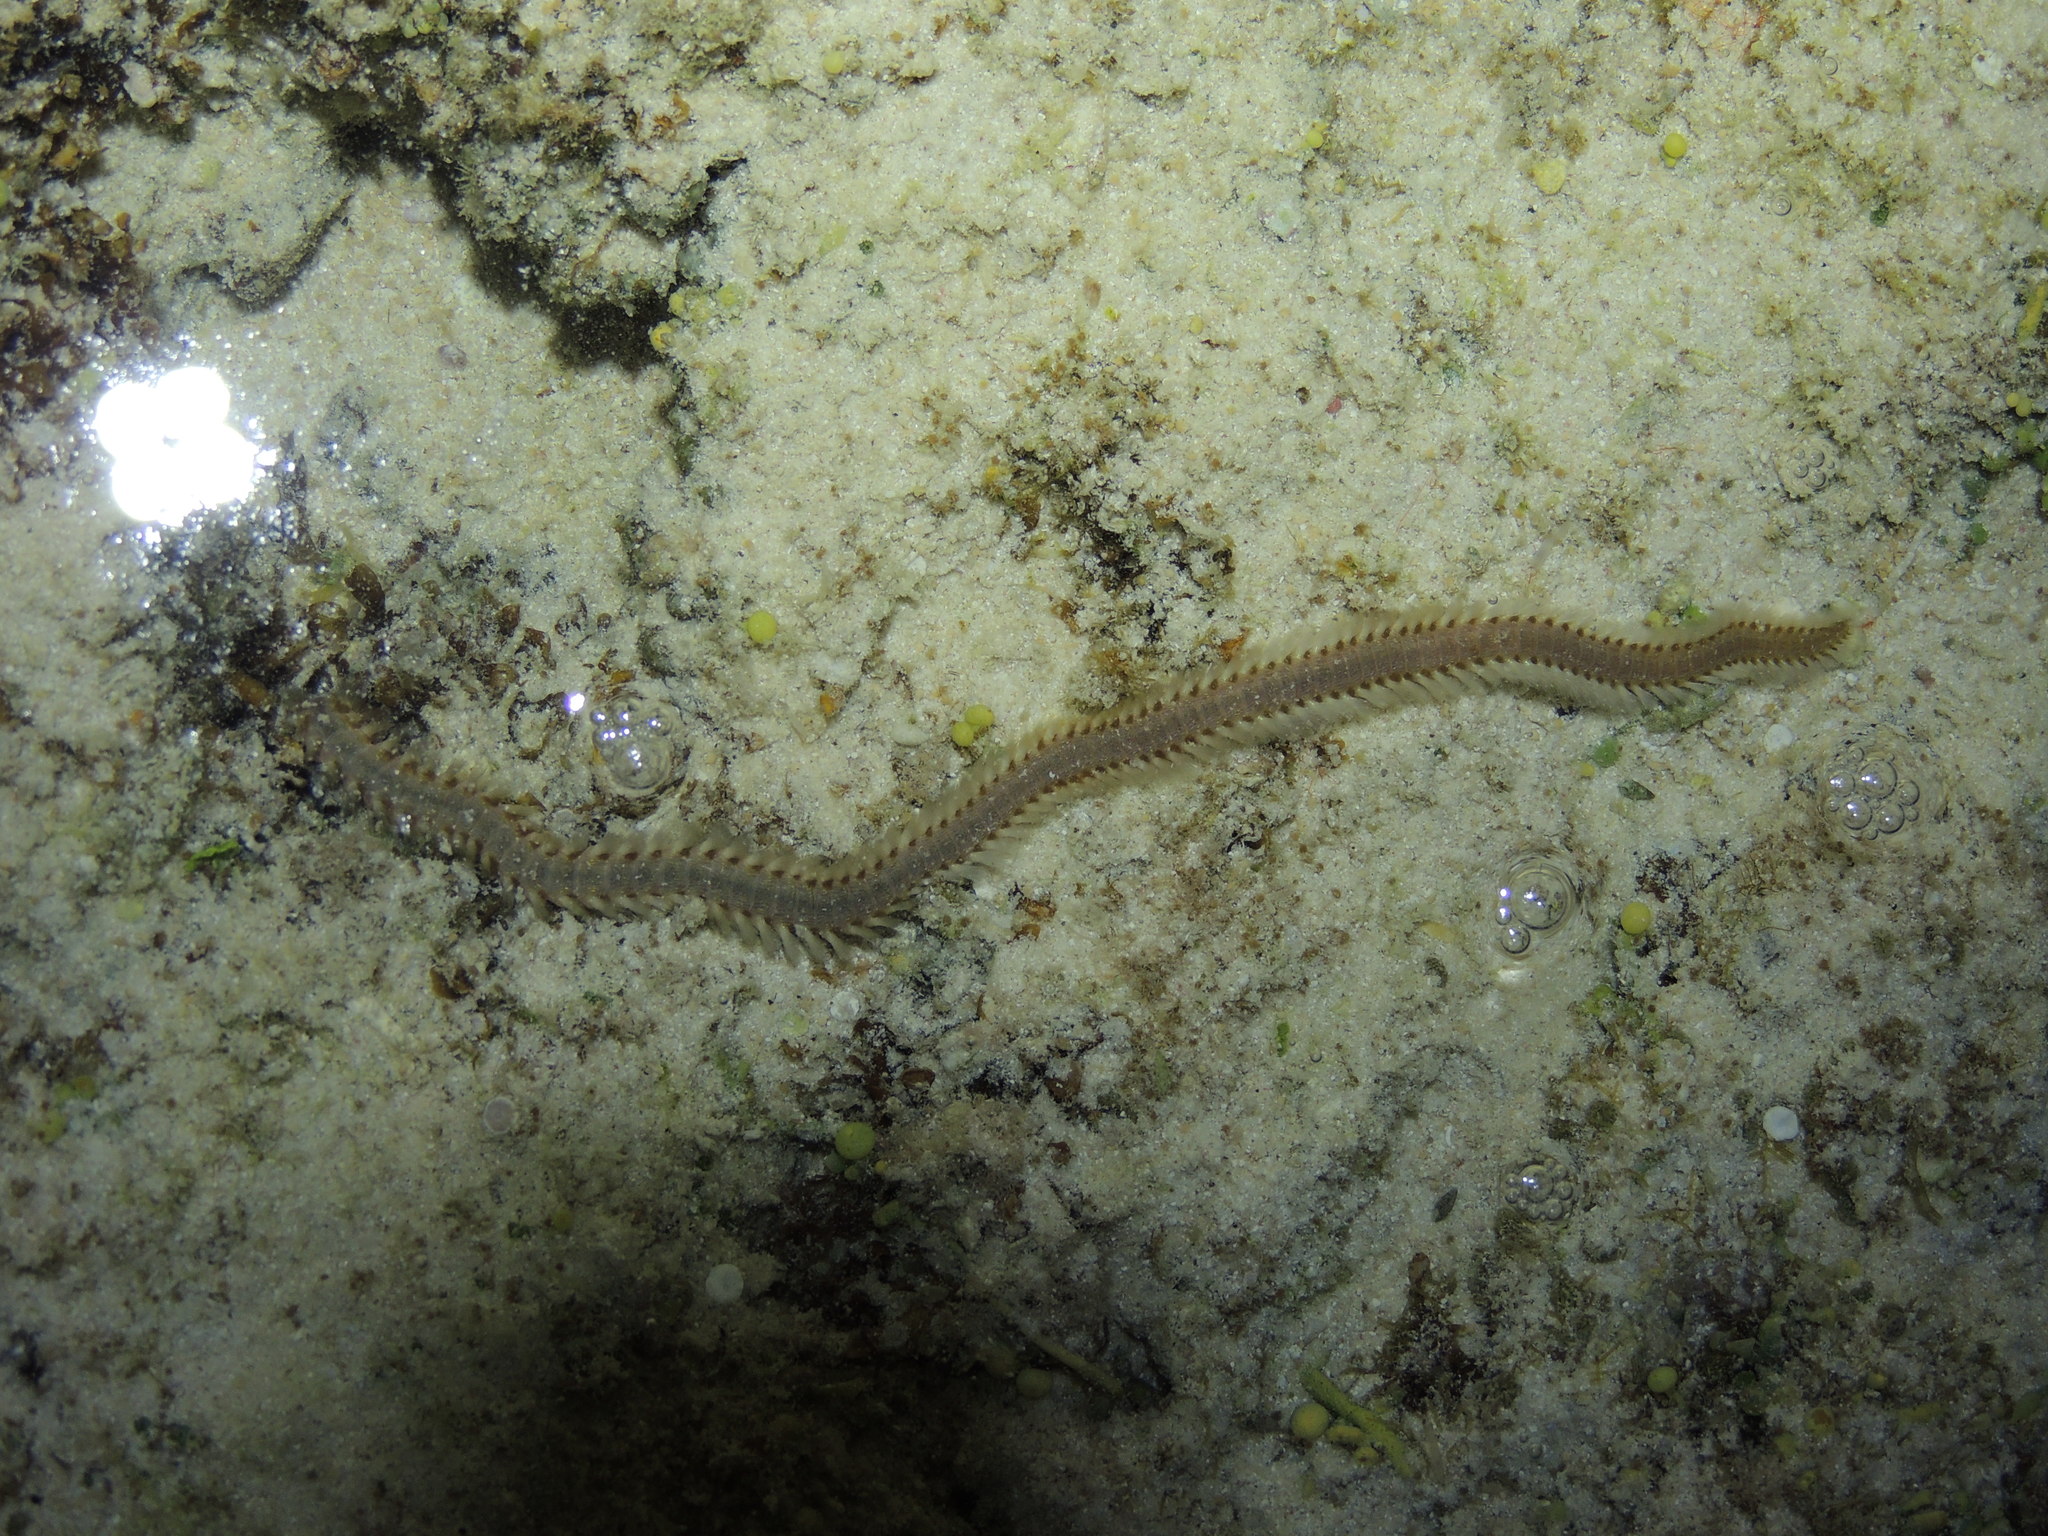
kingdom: Animalia
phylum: Annelida
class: Polychaeta
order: Amphinomida
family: Amphinomidae
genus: Eurythoe
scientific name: Eurythoe complanata
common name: Fireworm
